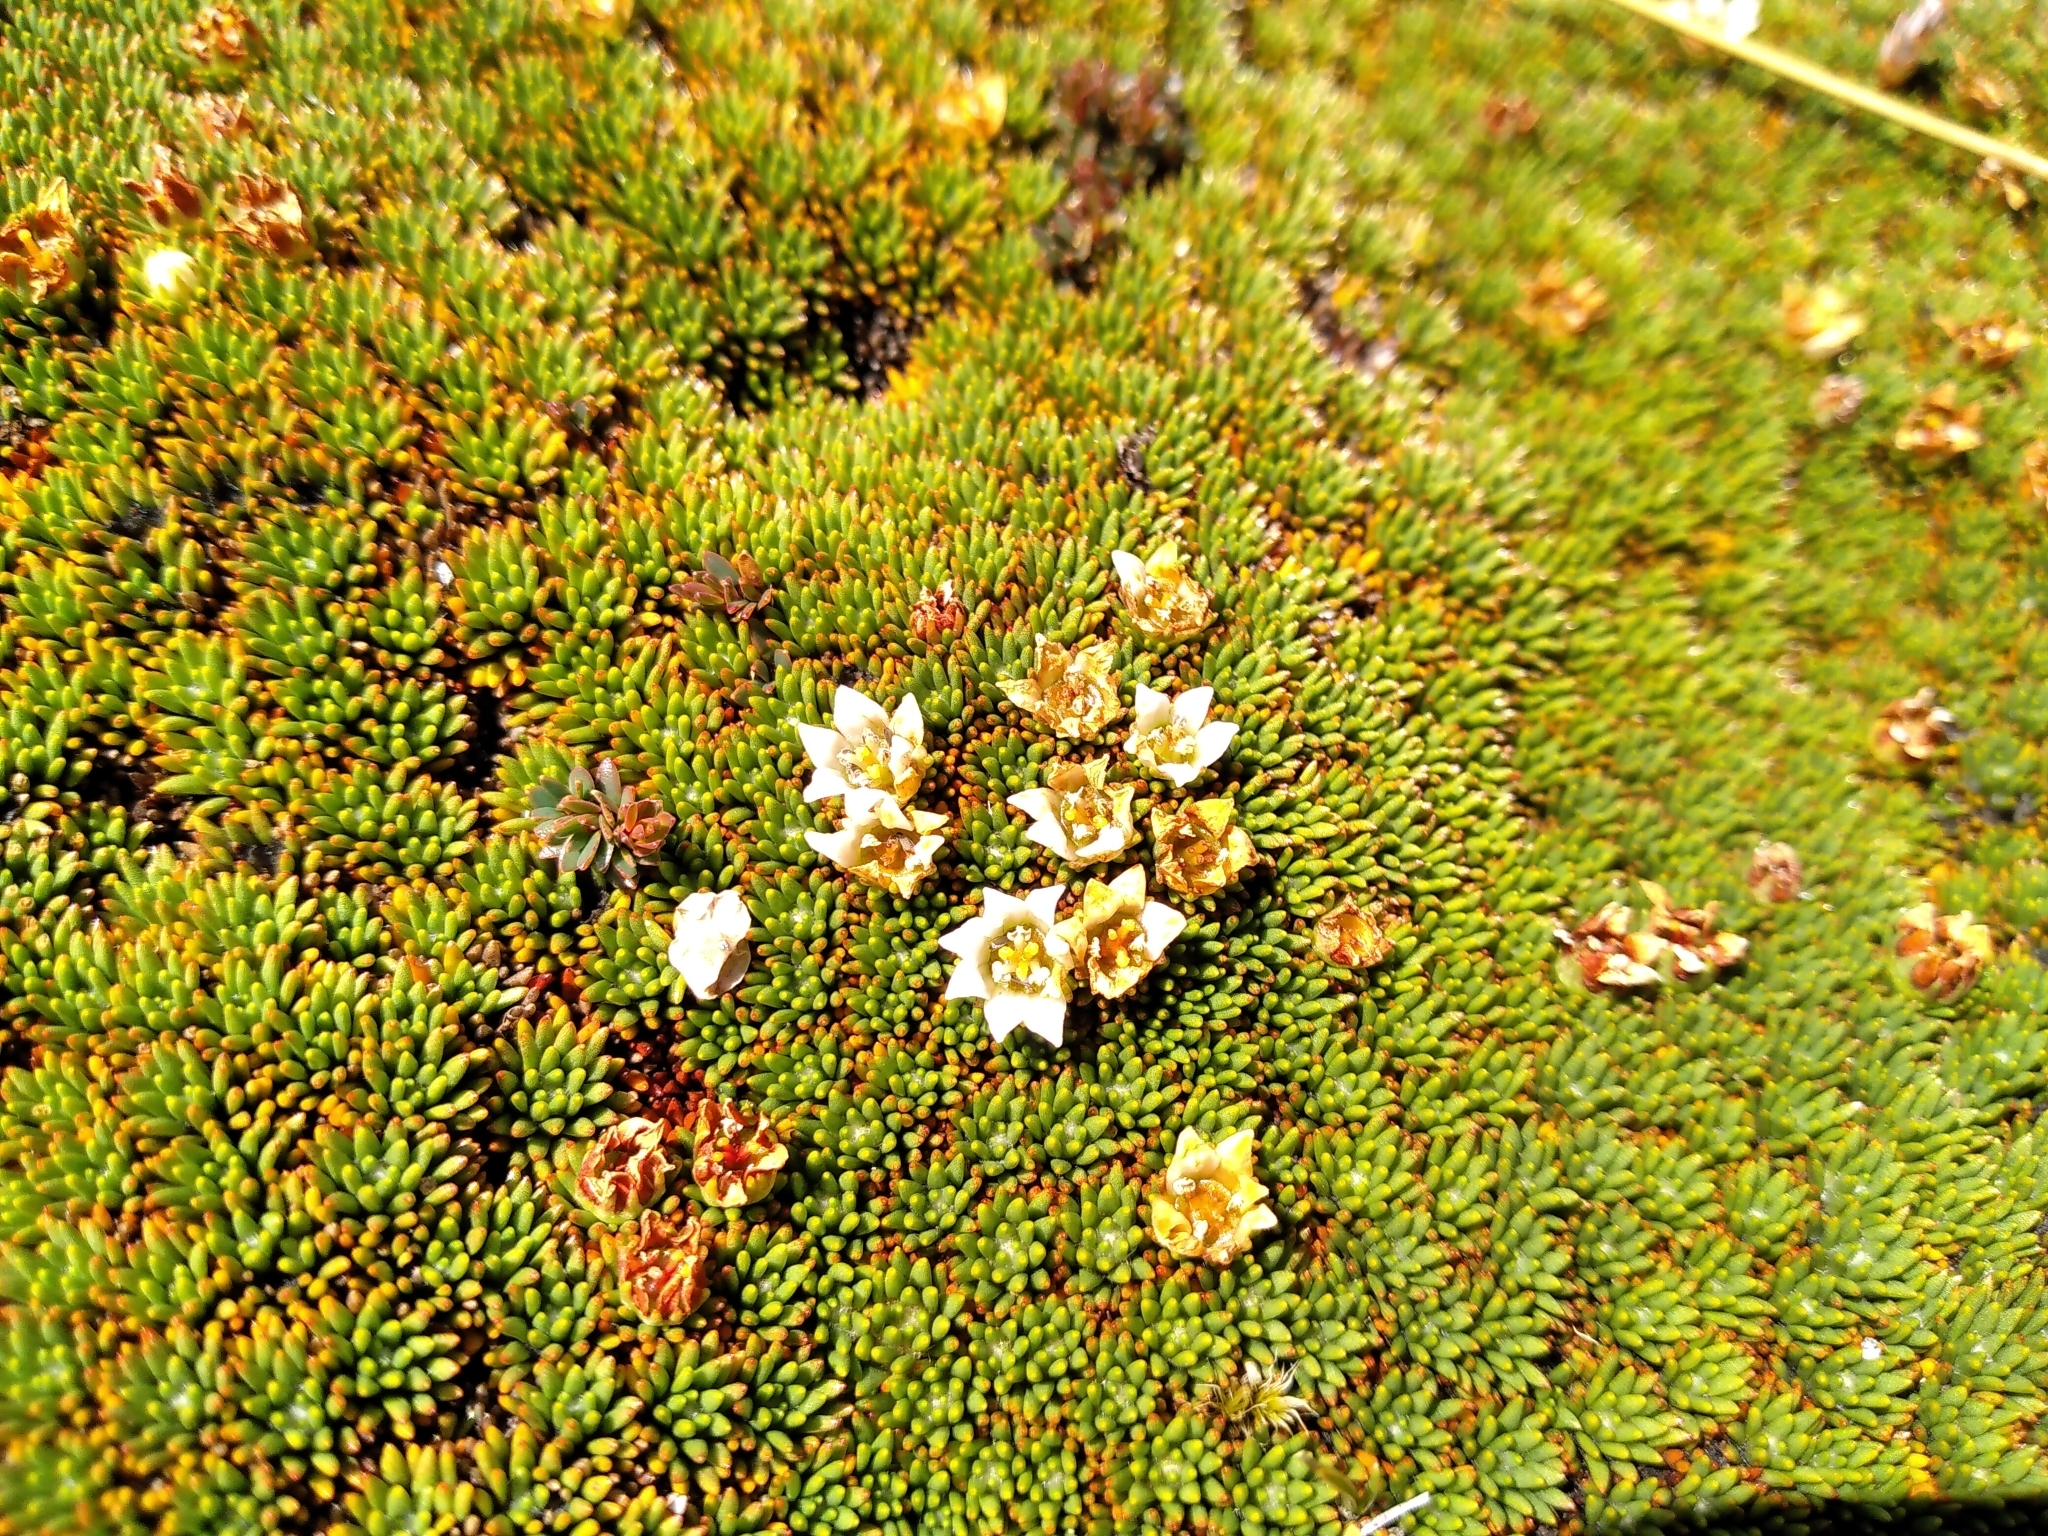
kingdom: Plantae
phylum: Tracheophyta
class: Magnoliopsida
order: Asterales
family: Stylidiaceae
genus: Donatia
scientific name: Donatia novae-zelandiae
